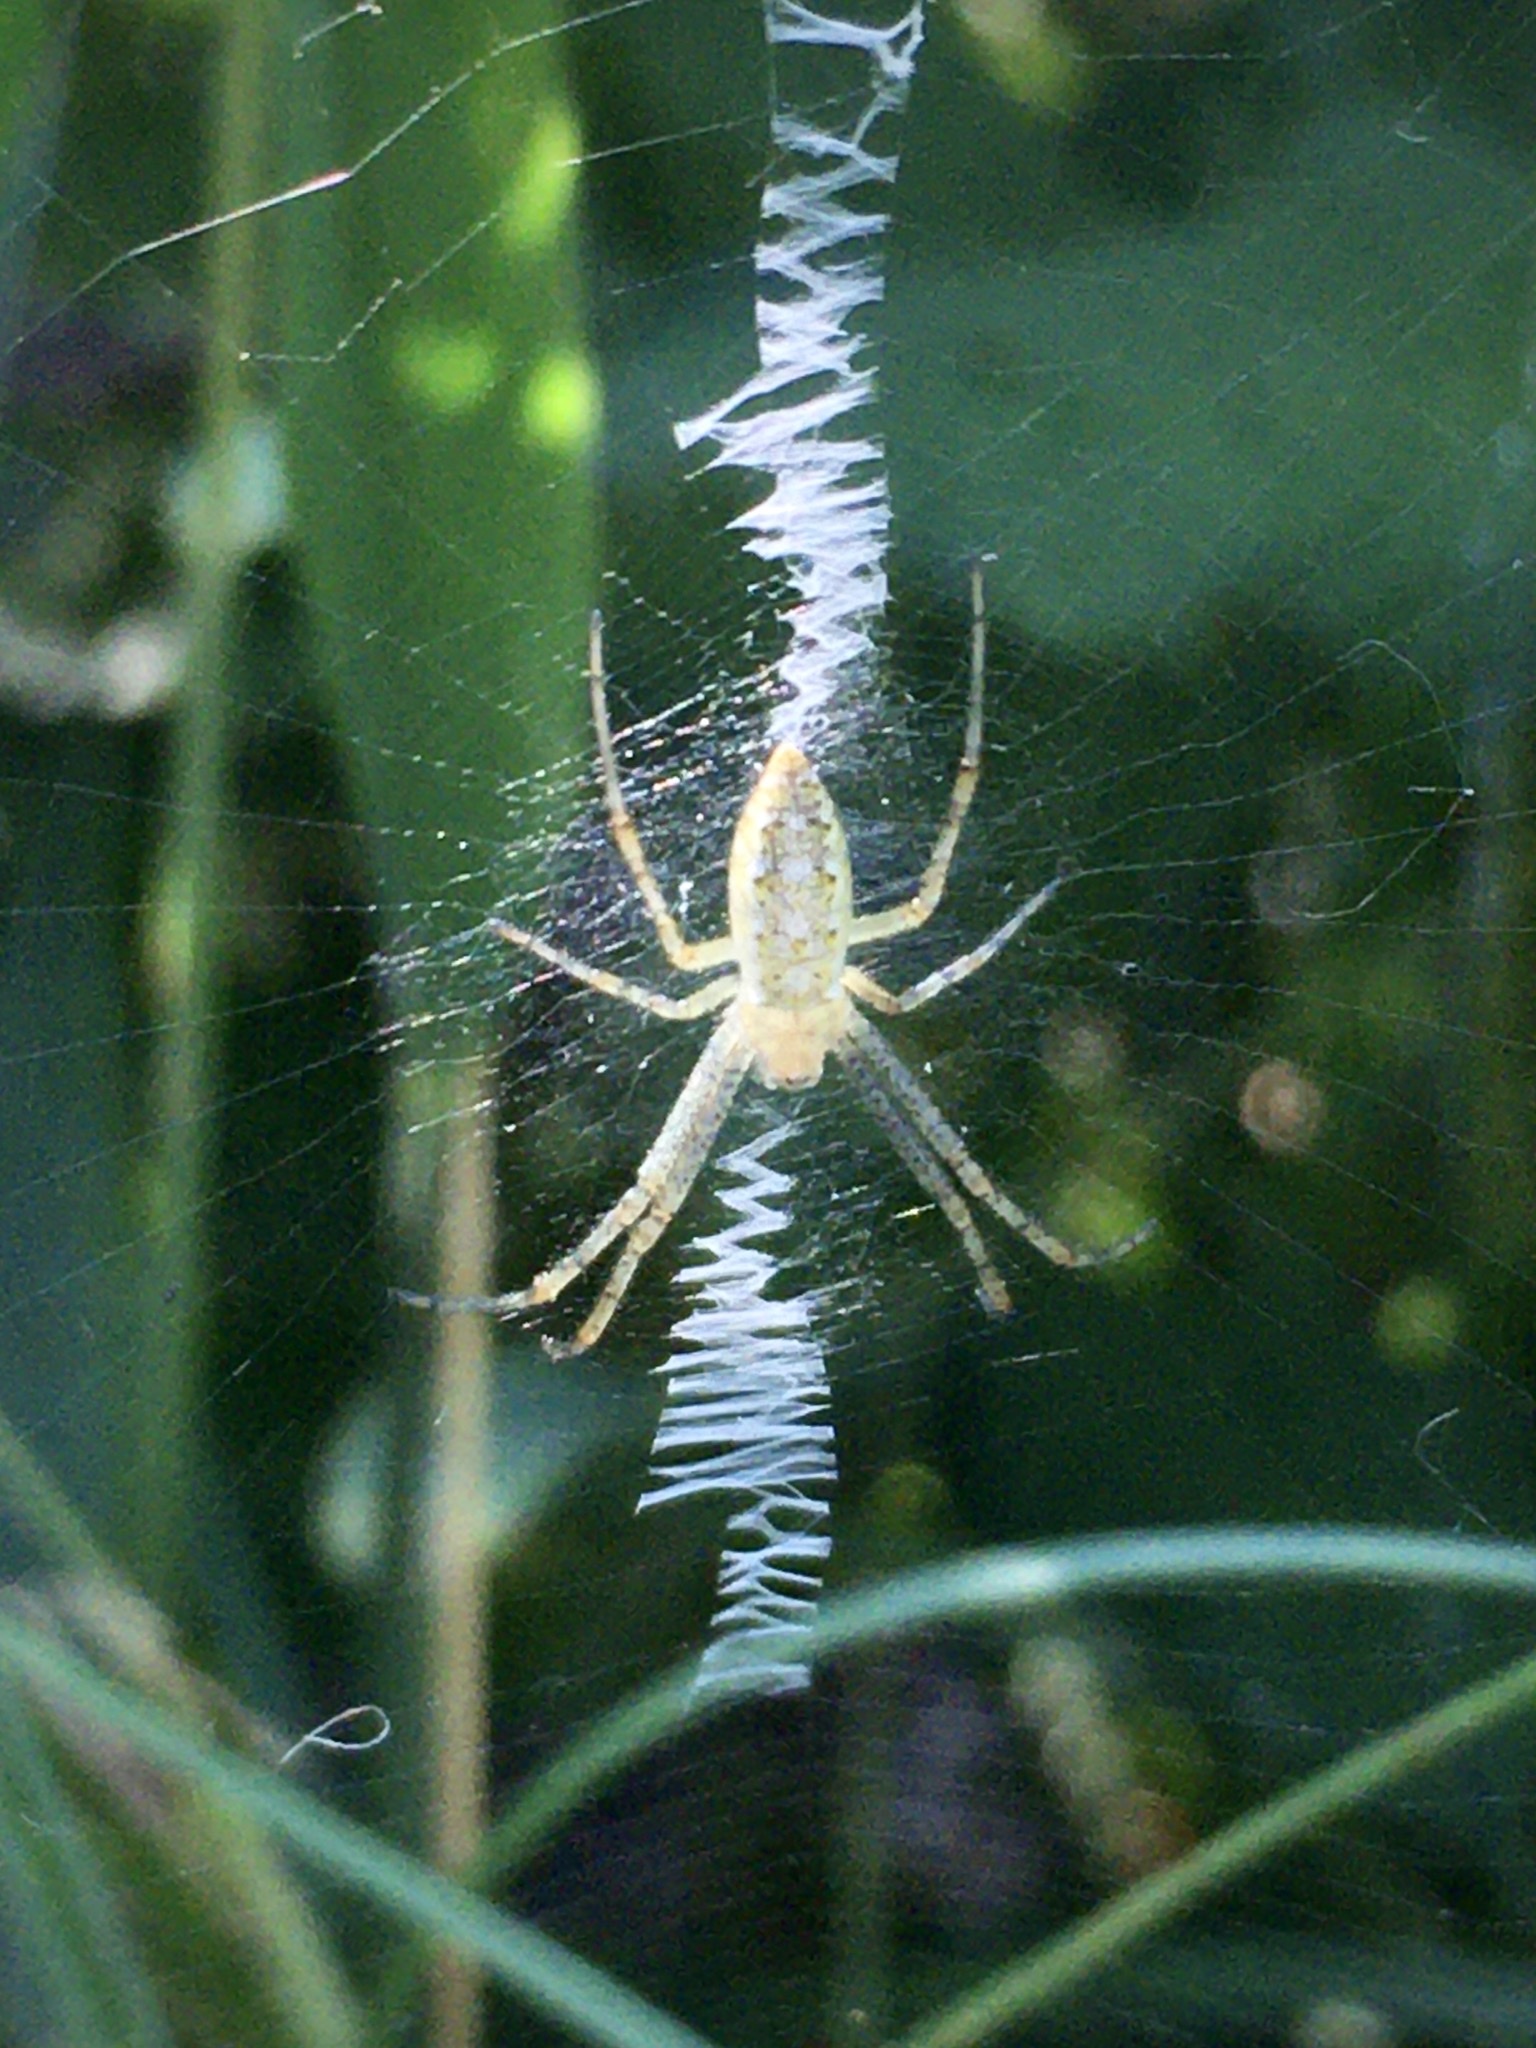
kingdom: Animalia
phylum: Arthropoda
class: Arachnida
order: Araneae
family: Araneidae
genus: Argiope
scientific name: Argiope bruennichi
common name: Wasp spider
